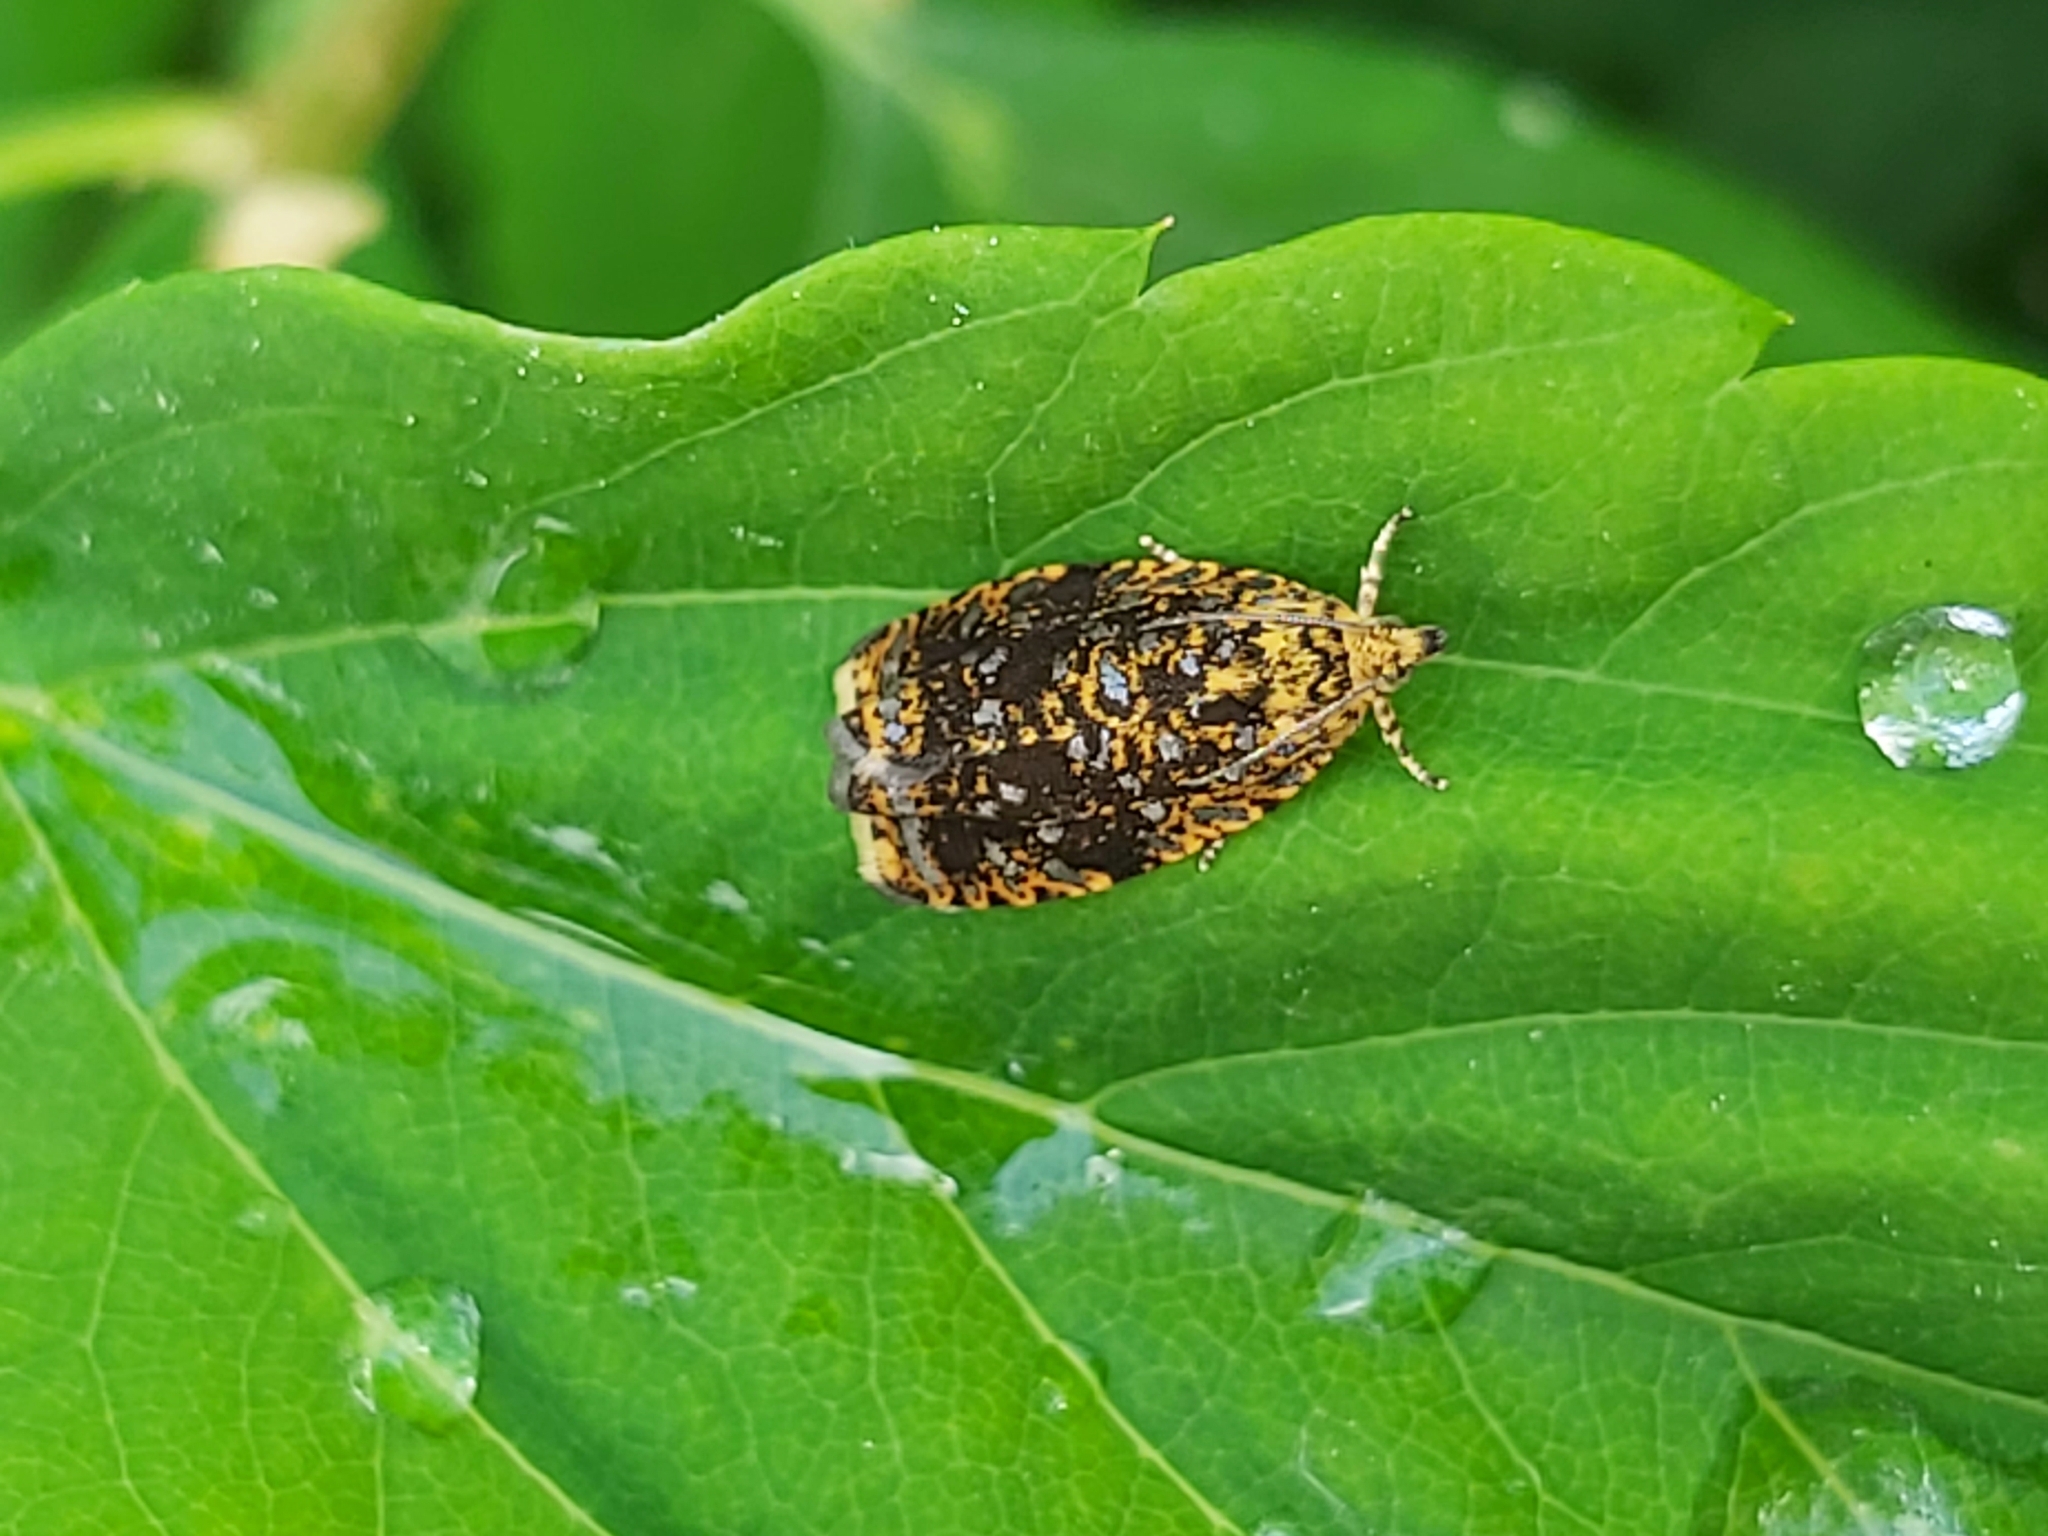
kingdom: Animalia
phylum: Arthropoda
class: Insecta
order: Lepidoptera
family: Tortricidae
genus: Phiaris
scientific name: Phiaris siderana
